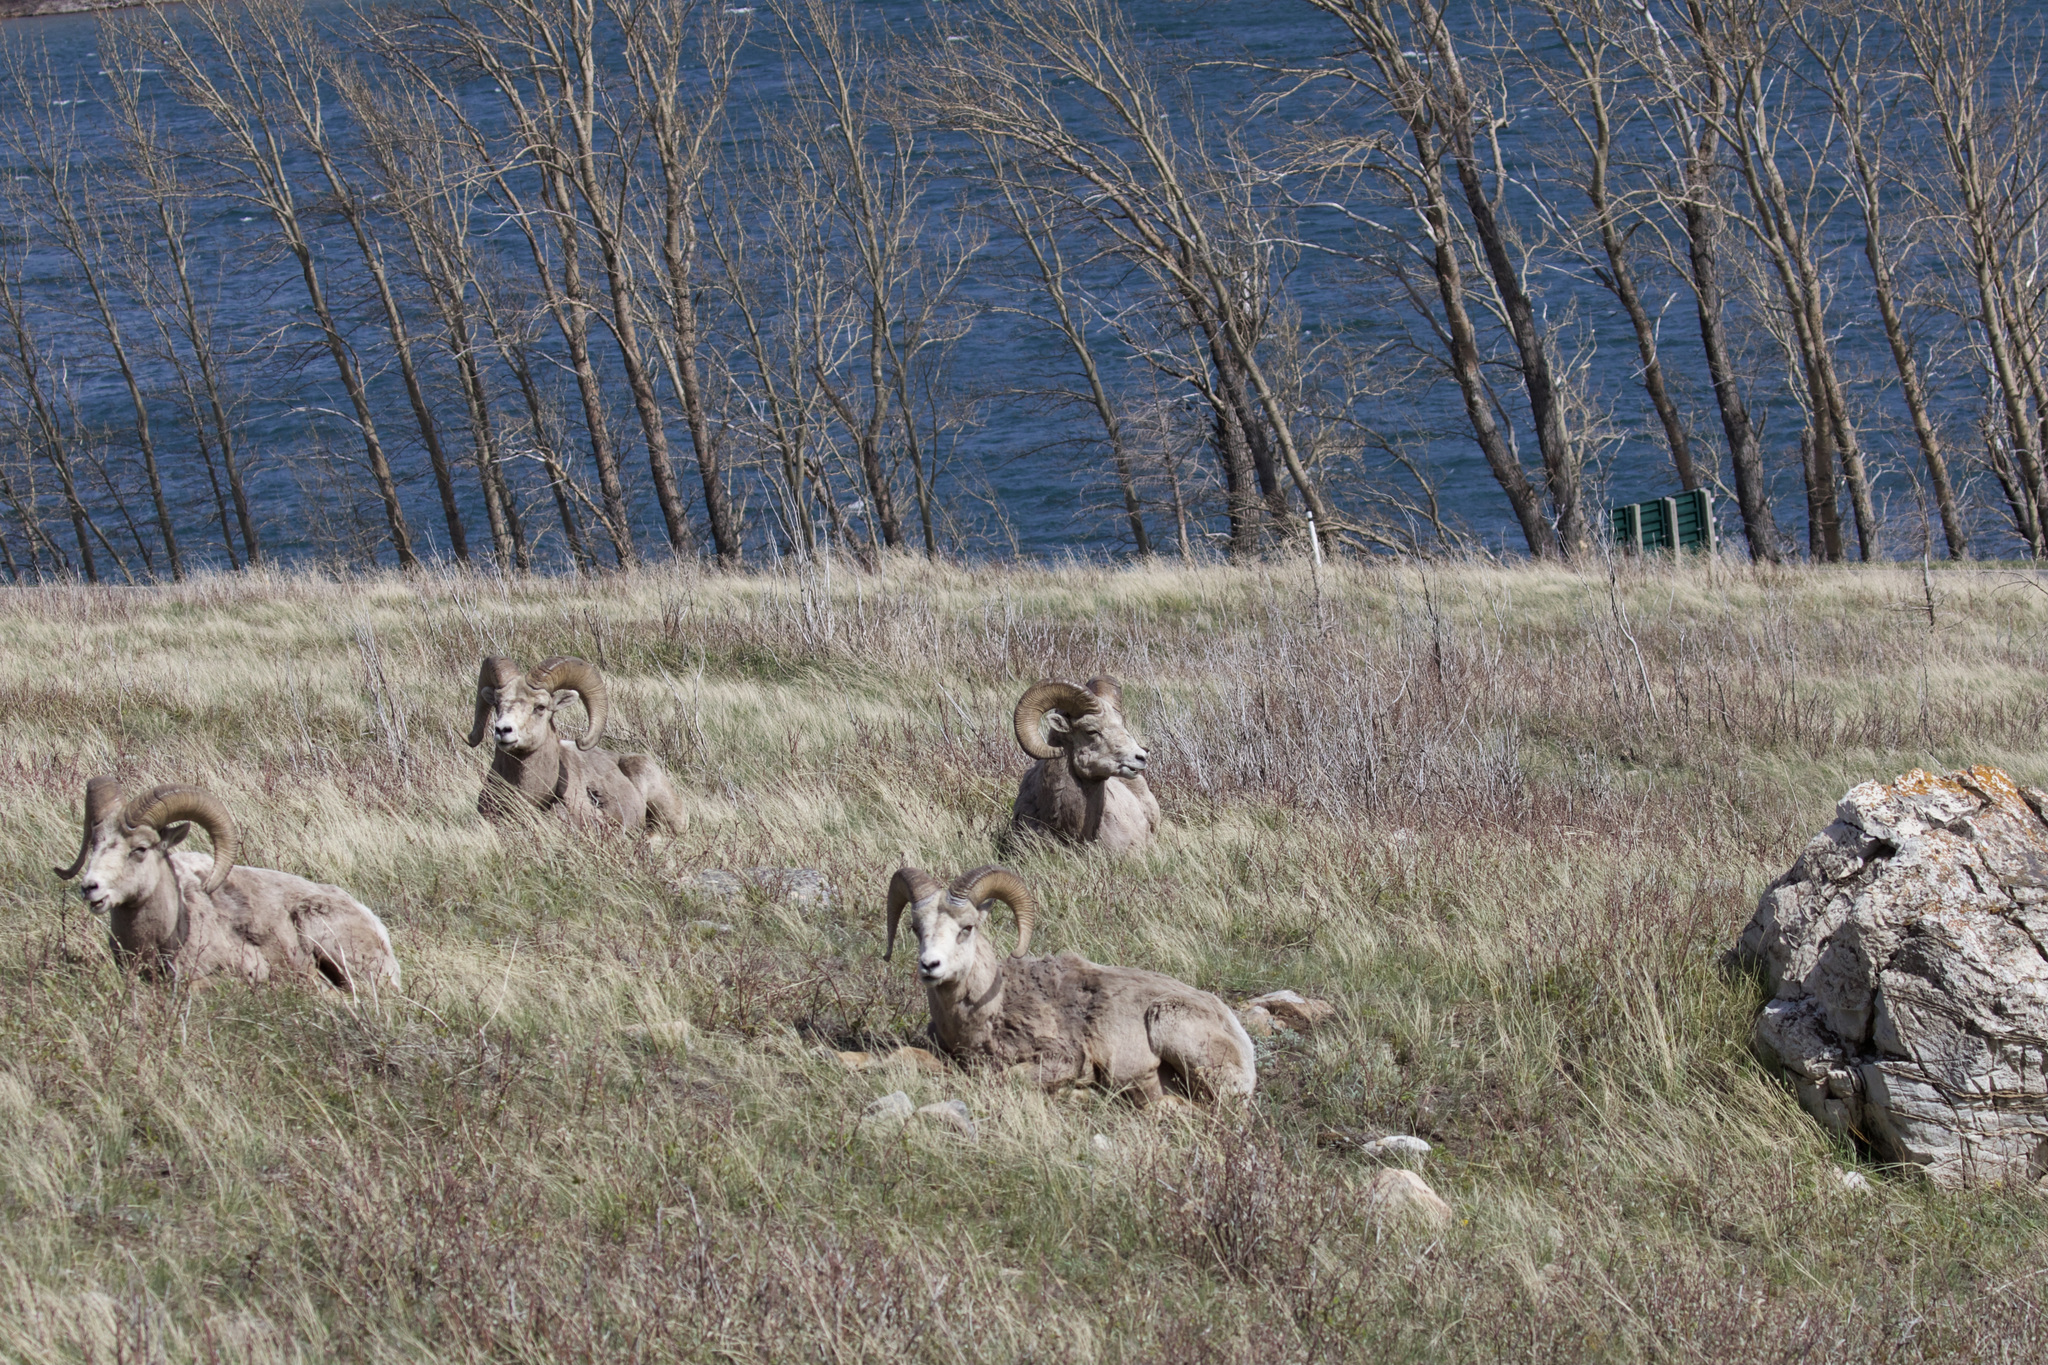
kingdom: Animalia
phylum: Chordata
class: Mammalia
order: Artiodactyla
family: Bovidae
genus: Ovis
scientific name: Ovis canadensis
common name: Bighorn sheep
